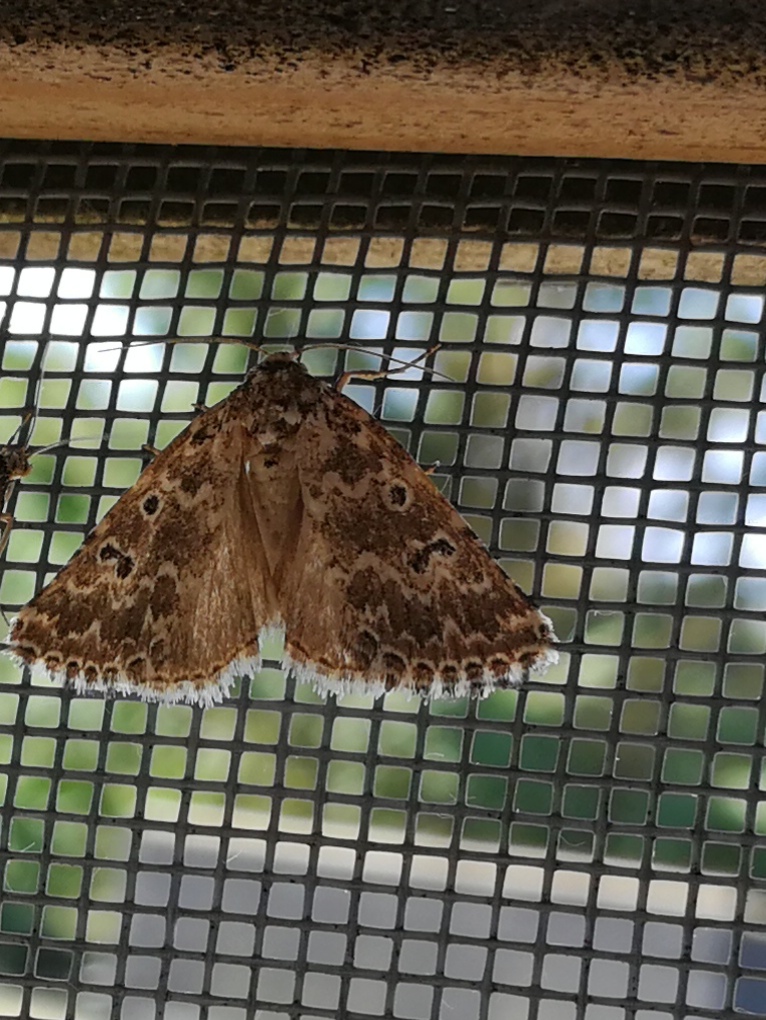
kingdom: Animalia
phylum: Arthropoda
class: Insecta
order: Lepidoptera
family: Noctuidae
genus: Alvaradoia
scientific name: Alvaradoia disjecta
